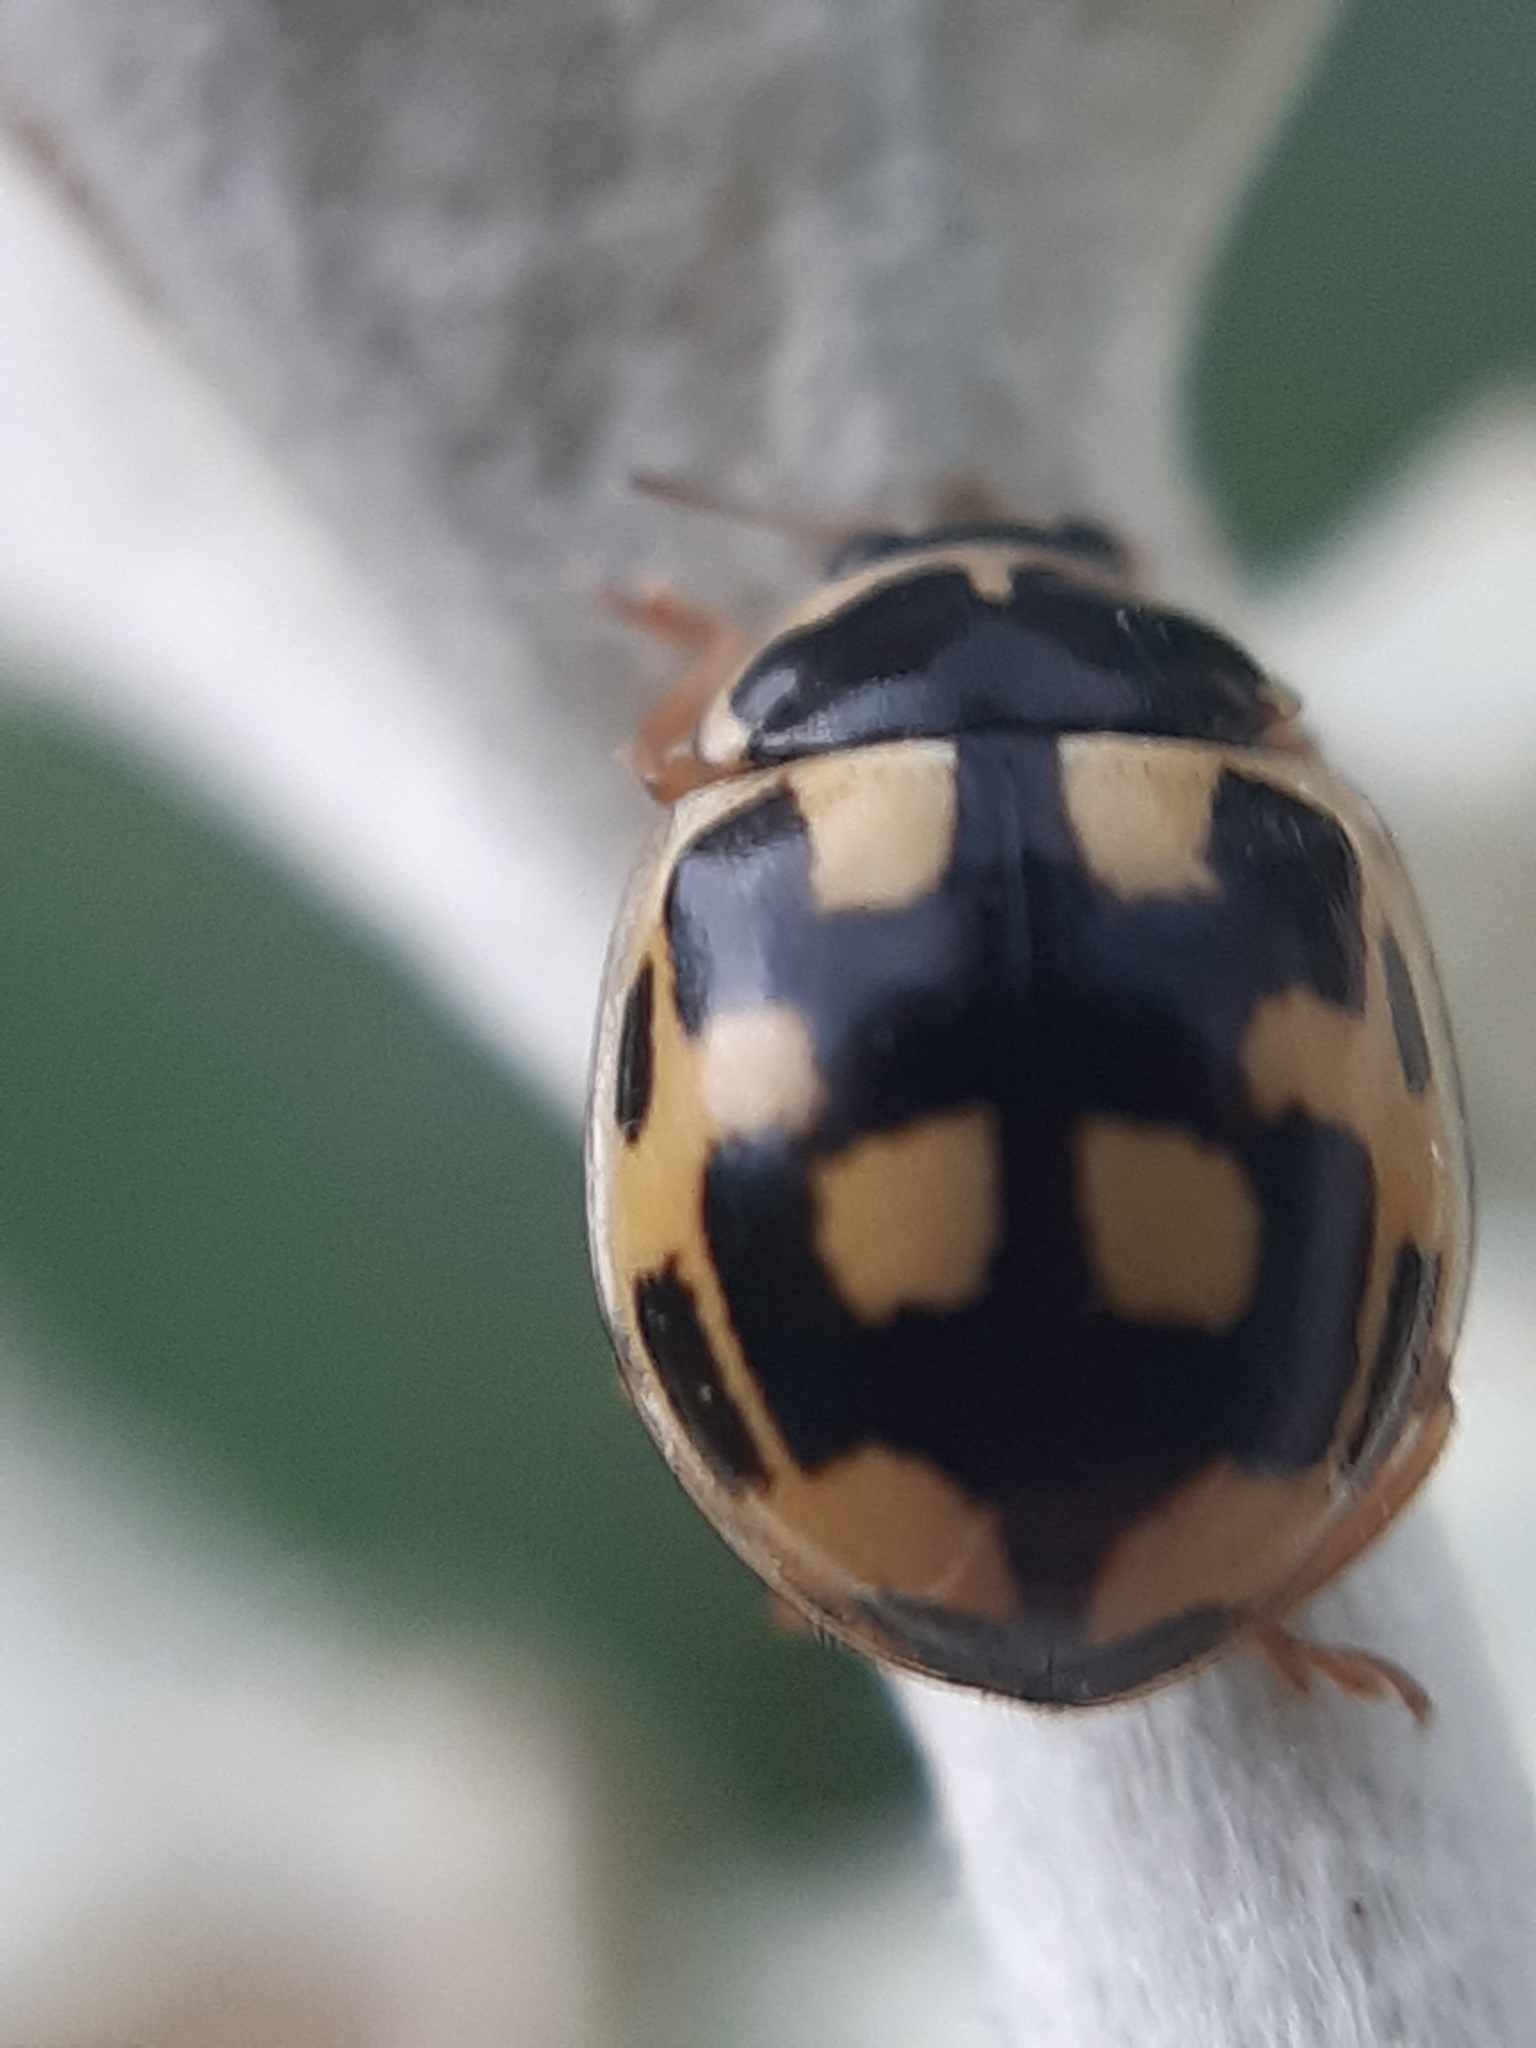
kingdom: Animalia
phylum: Arthropoda
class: Insecta
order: Coleoptera
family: Coccinellidae
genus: Propylaea
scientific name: Propylaea quatuordecimpunctata
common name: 14-spotted ladybird beetle
